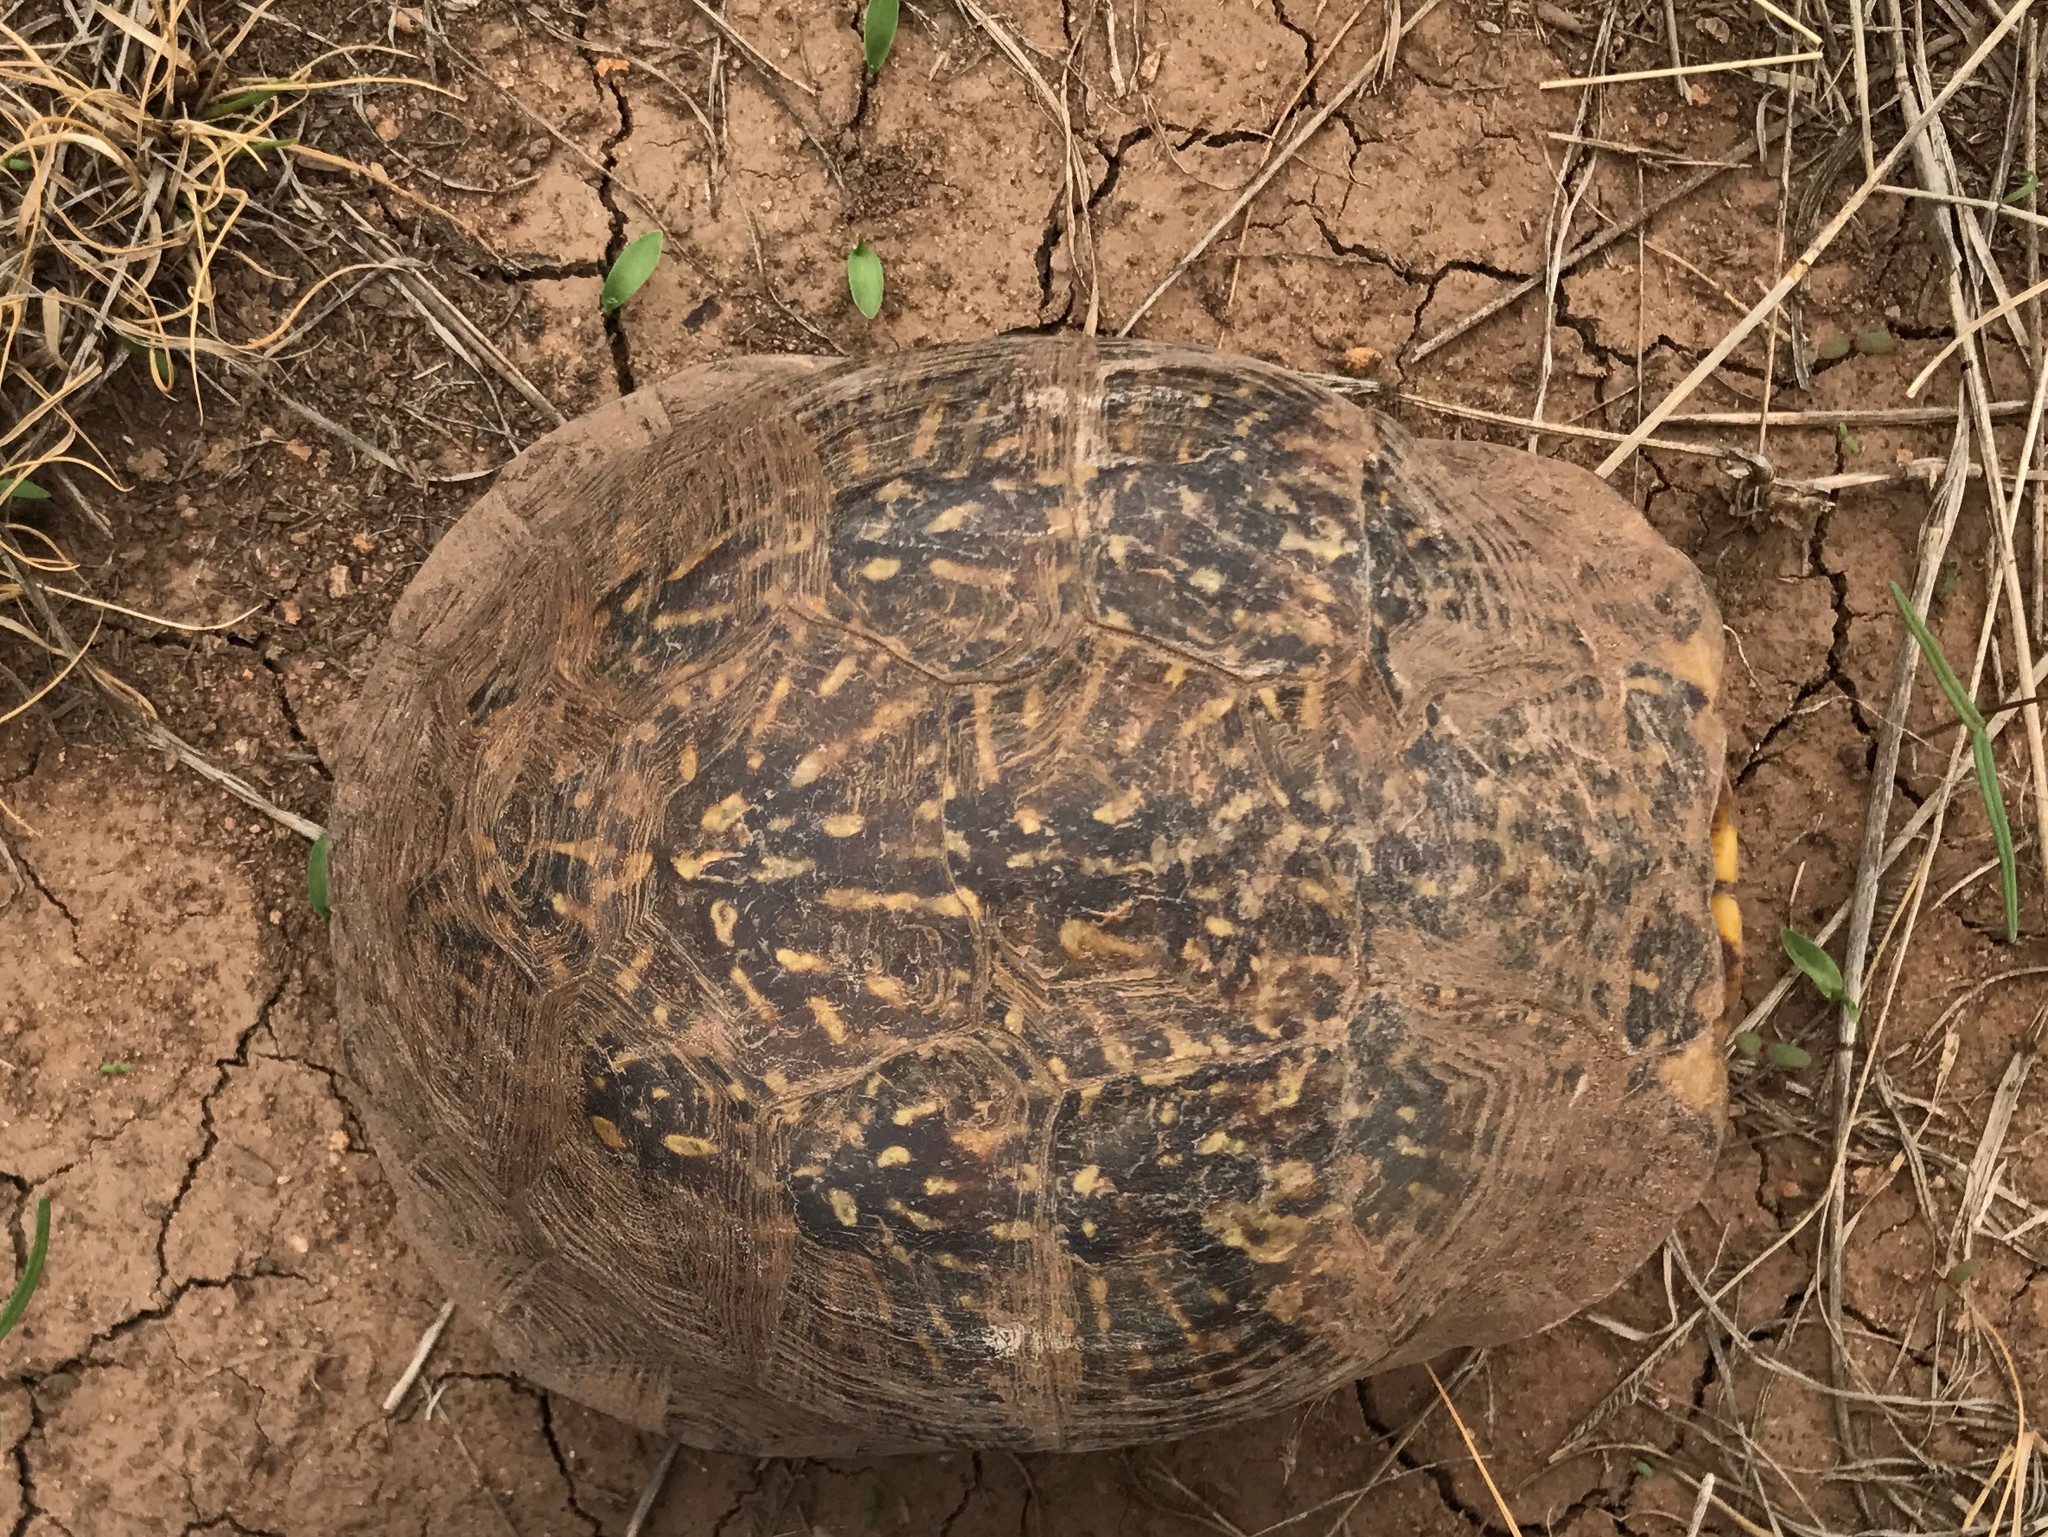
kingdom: Animalia
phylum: Chordata
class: Testudines
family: Emydidae
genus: Terrapene
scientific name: Terrapene ornata
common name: Western box turtle
